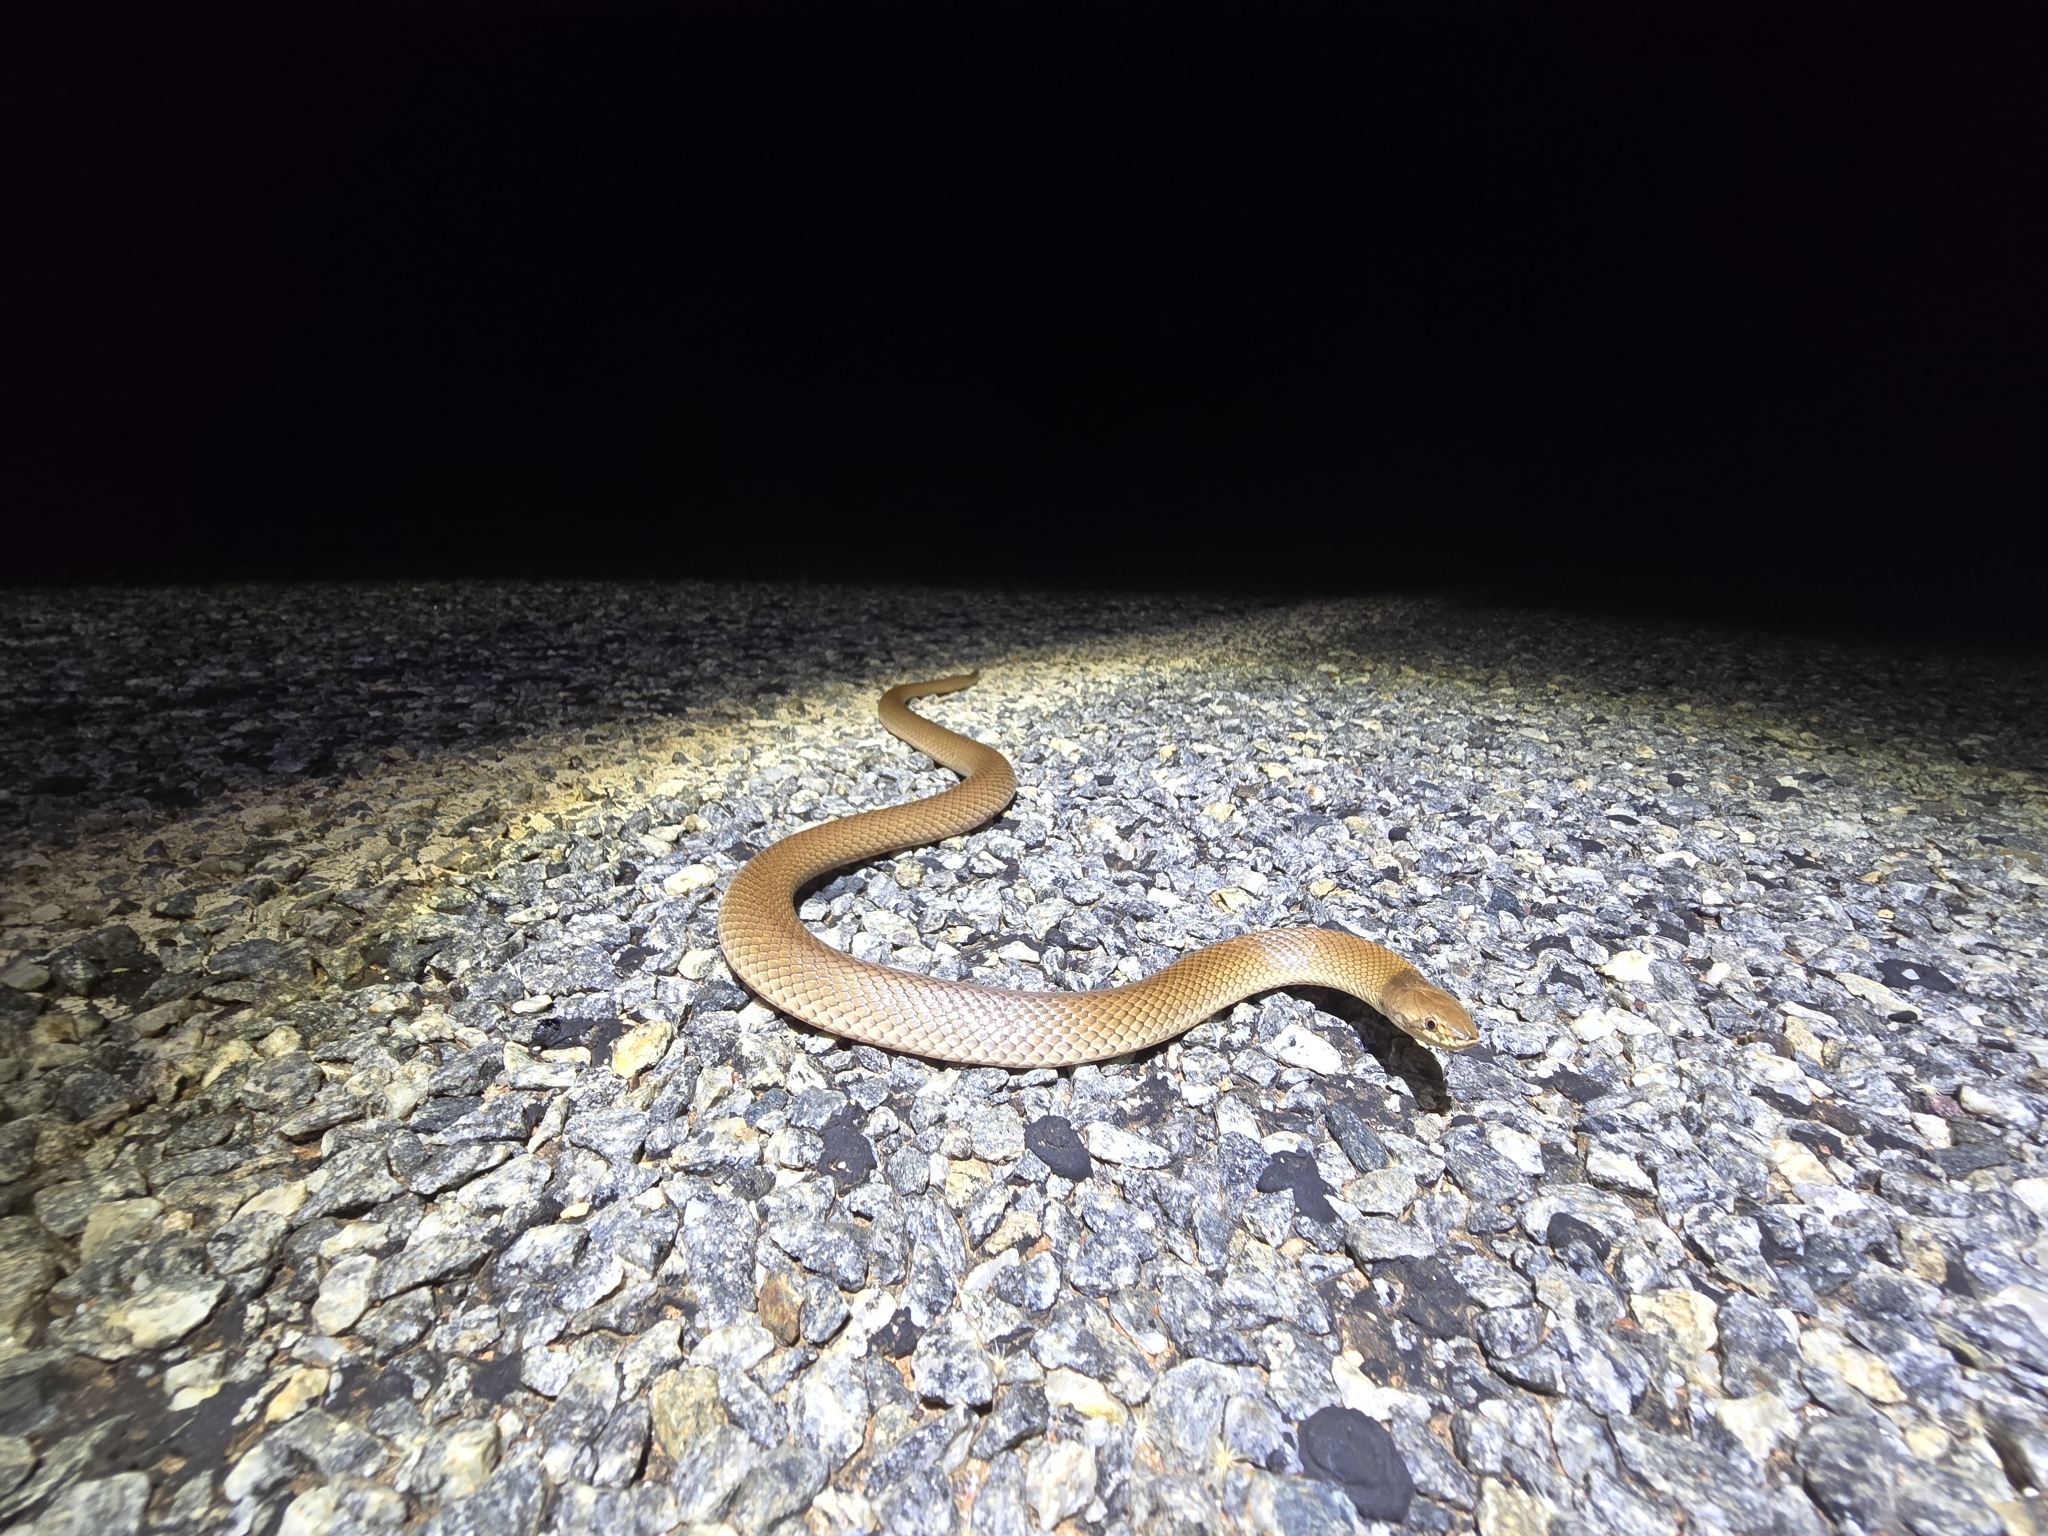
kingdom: Animalia
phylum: Chordata
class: Squamata
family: Elapidae
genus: Suta
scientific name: Suta suta
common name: Curl snake
